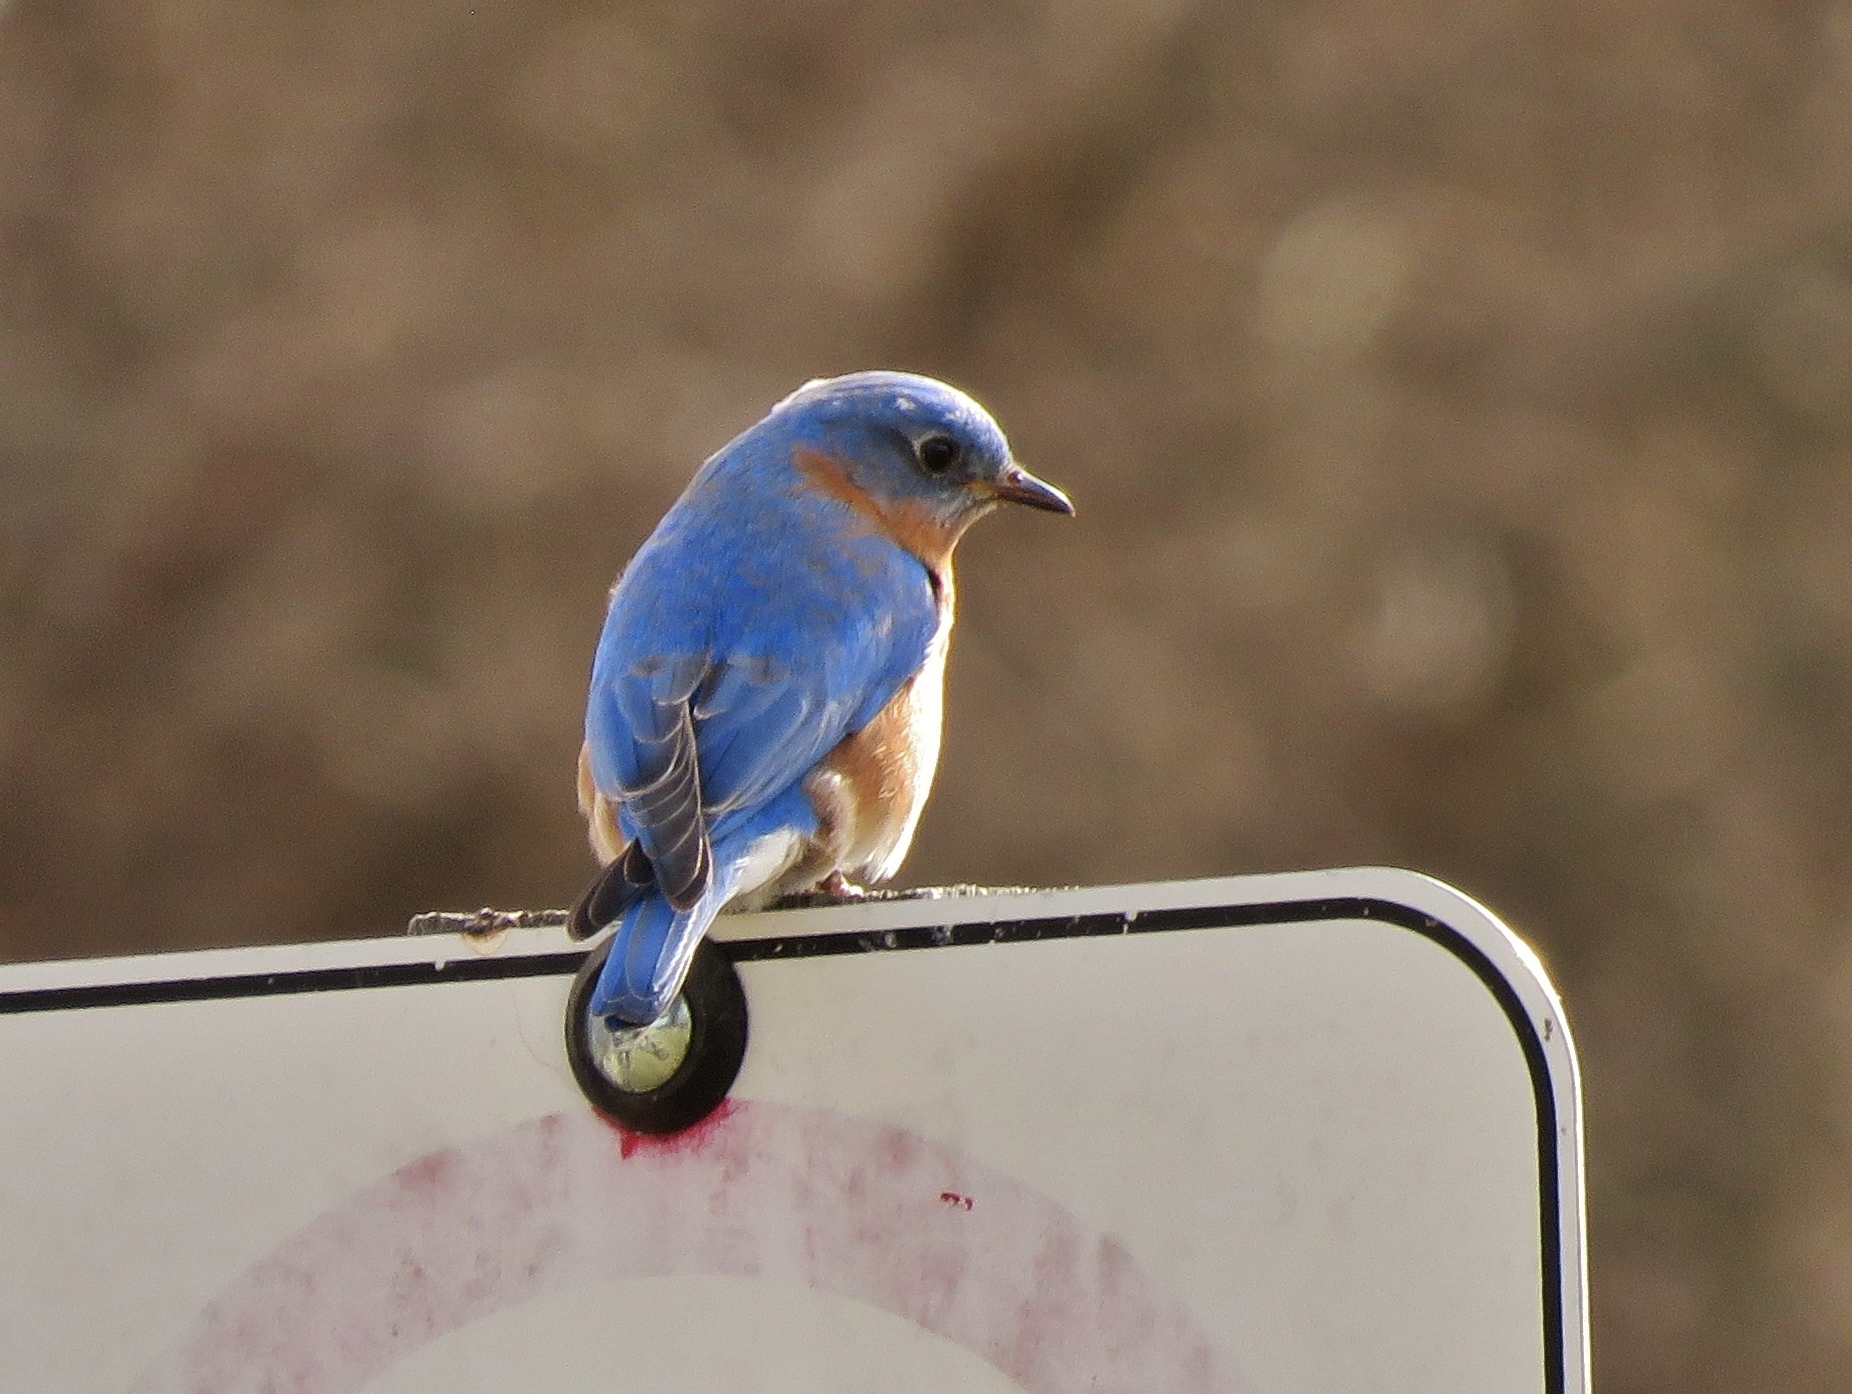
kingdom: Animalia
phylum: Chordata
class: Aves
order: Passeriformes
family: Turdidae
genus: Sialia
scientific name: Sialia sialis
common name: Eastern bluebird
